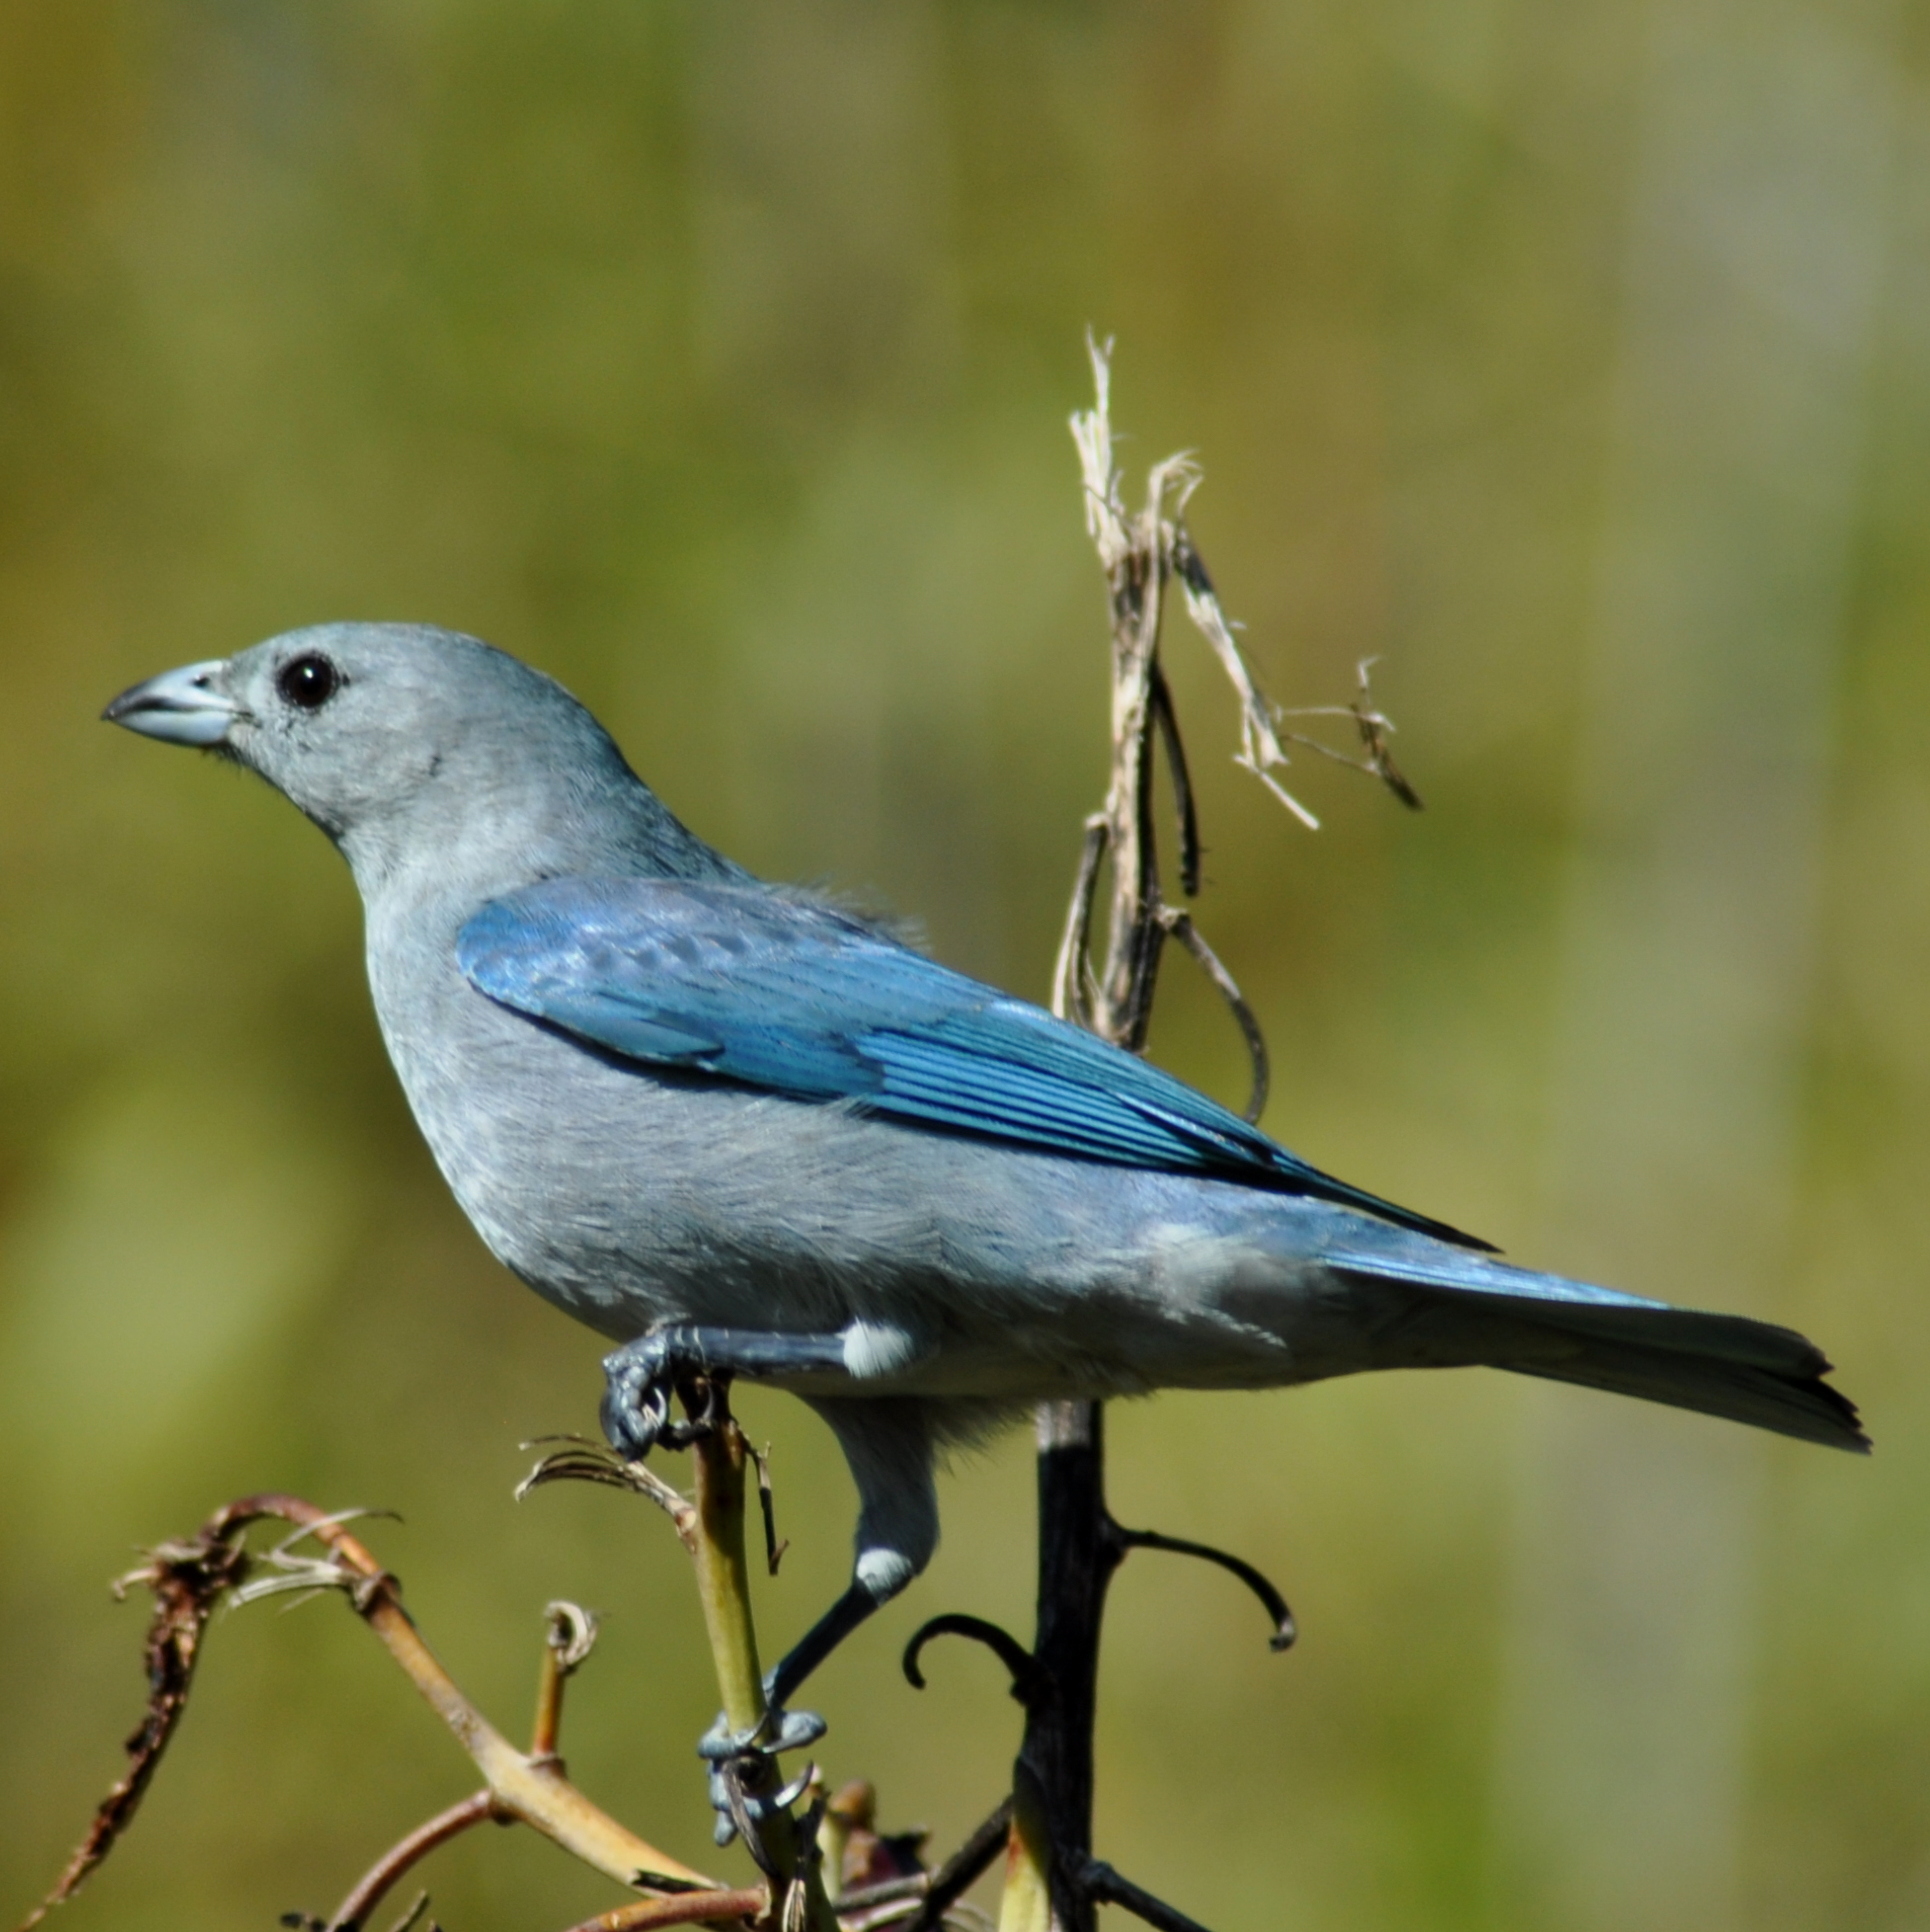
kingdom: Animalia
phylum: Chordata
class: Aves
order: Passeriformes
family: Thraupidae
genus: Thraupis
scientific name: Thraupis sayaca
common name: Sayaca tanager
